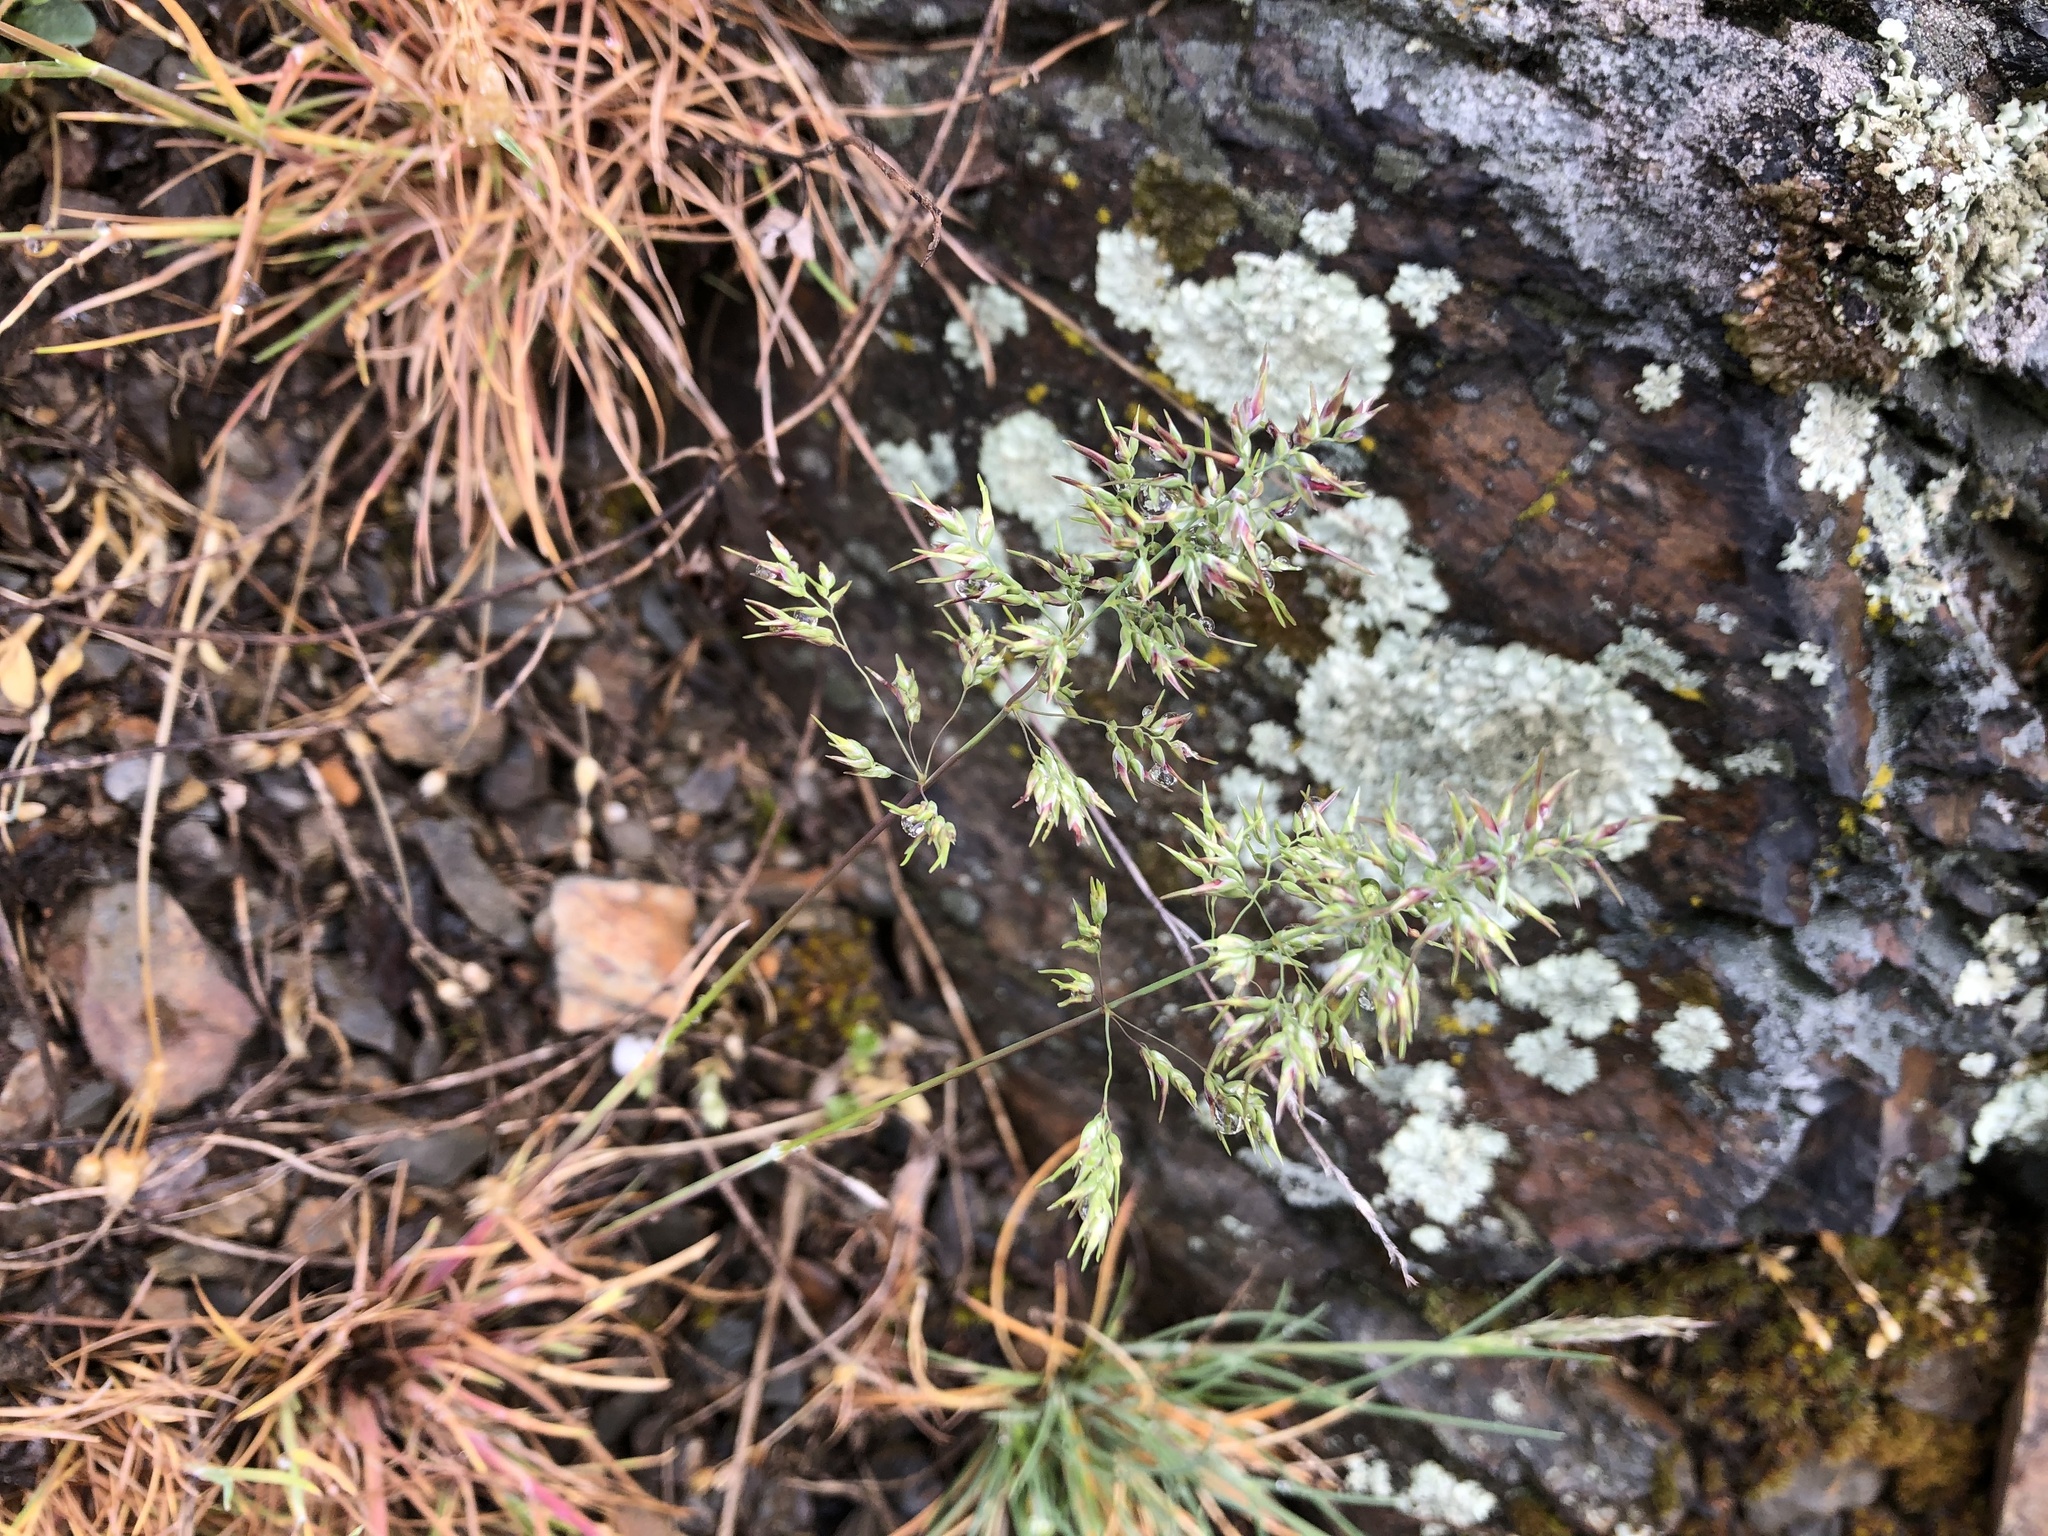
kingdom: Plantae
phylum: Tracheophyta
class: Liliopsida
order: Poales
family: Poaceae
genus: Poa
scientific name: Poa bulbosa
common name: Bulbous bluegrass
